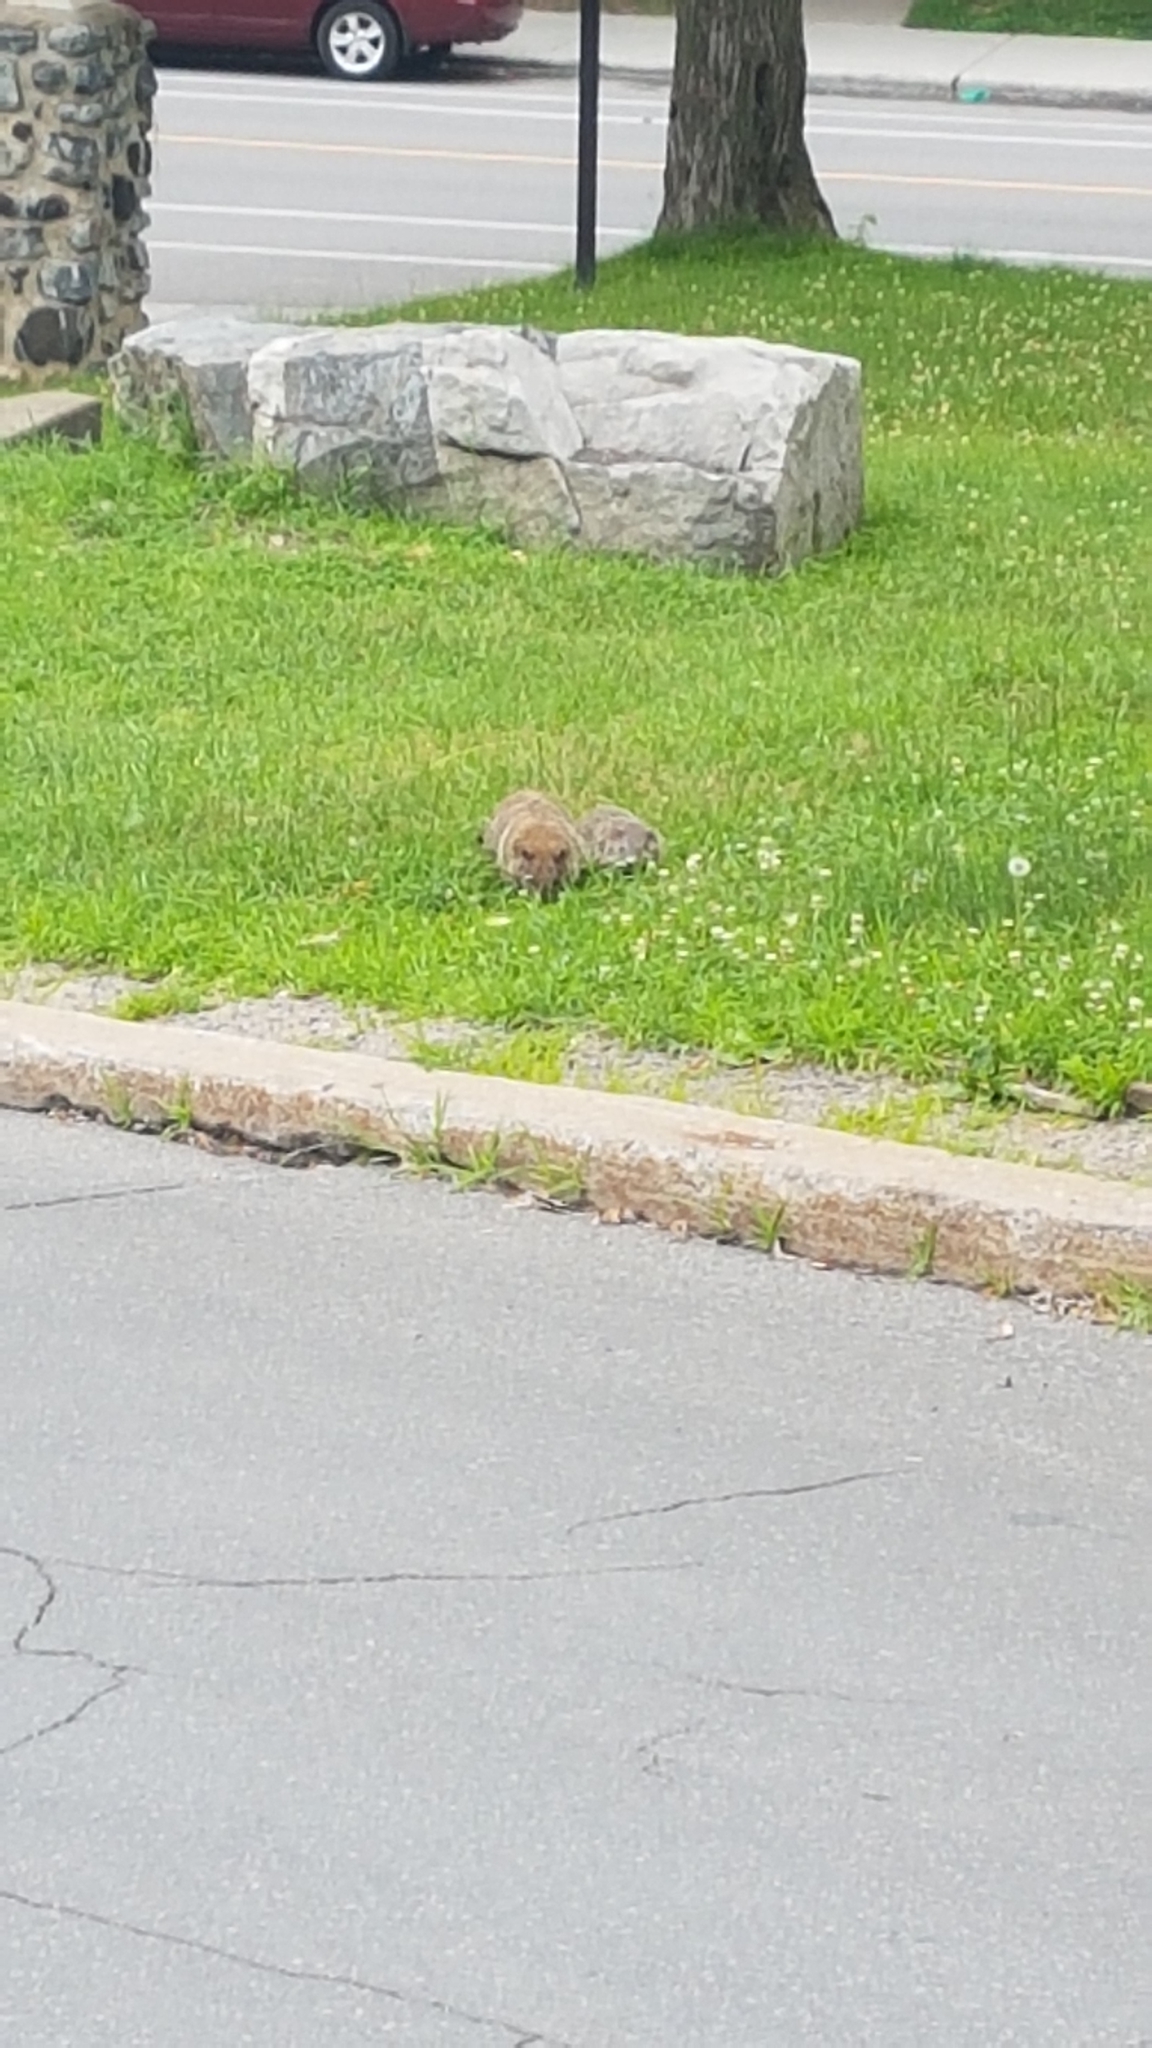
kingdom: Animalia
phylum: Chordata
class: Mammalia
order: Rodentia
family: Sciuridae
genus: Marmota
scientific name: Marmota monax
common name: Groundhog
